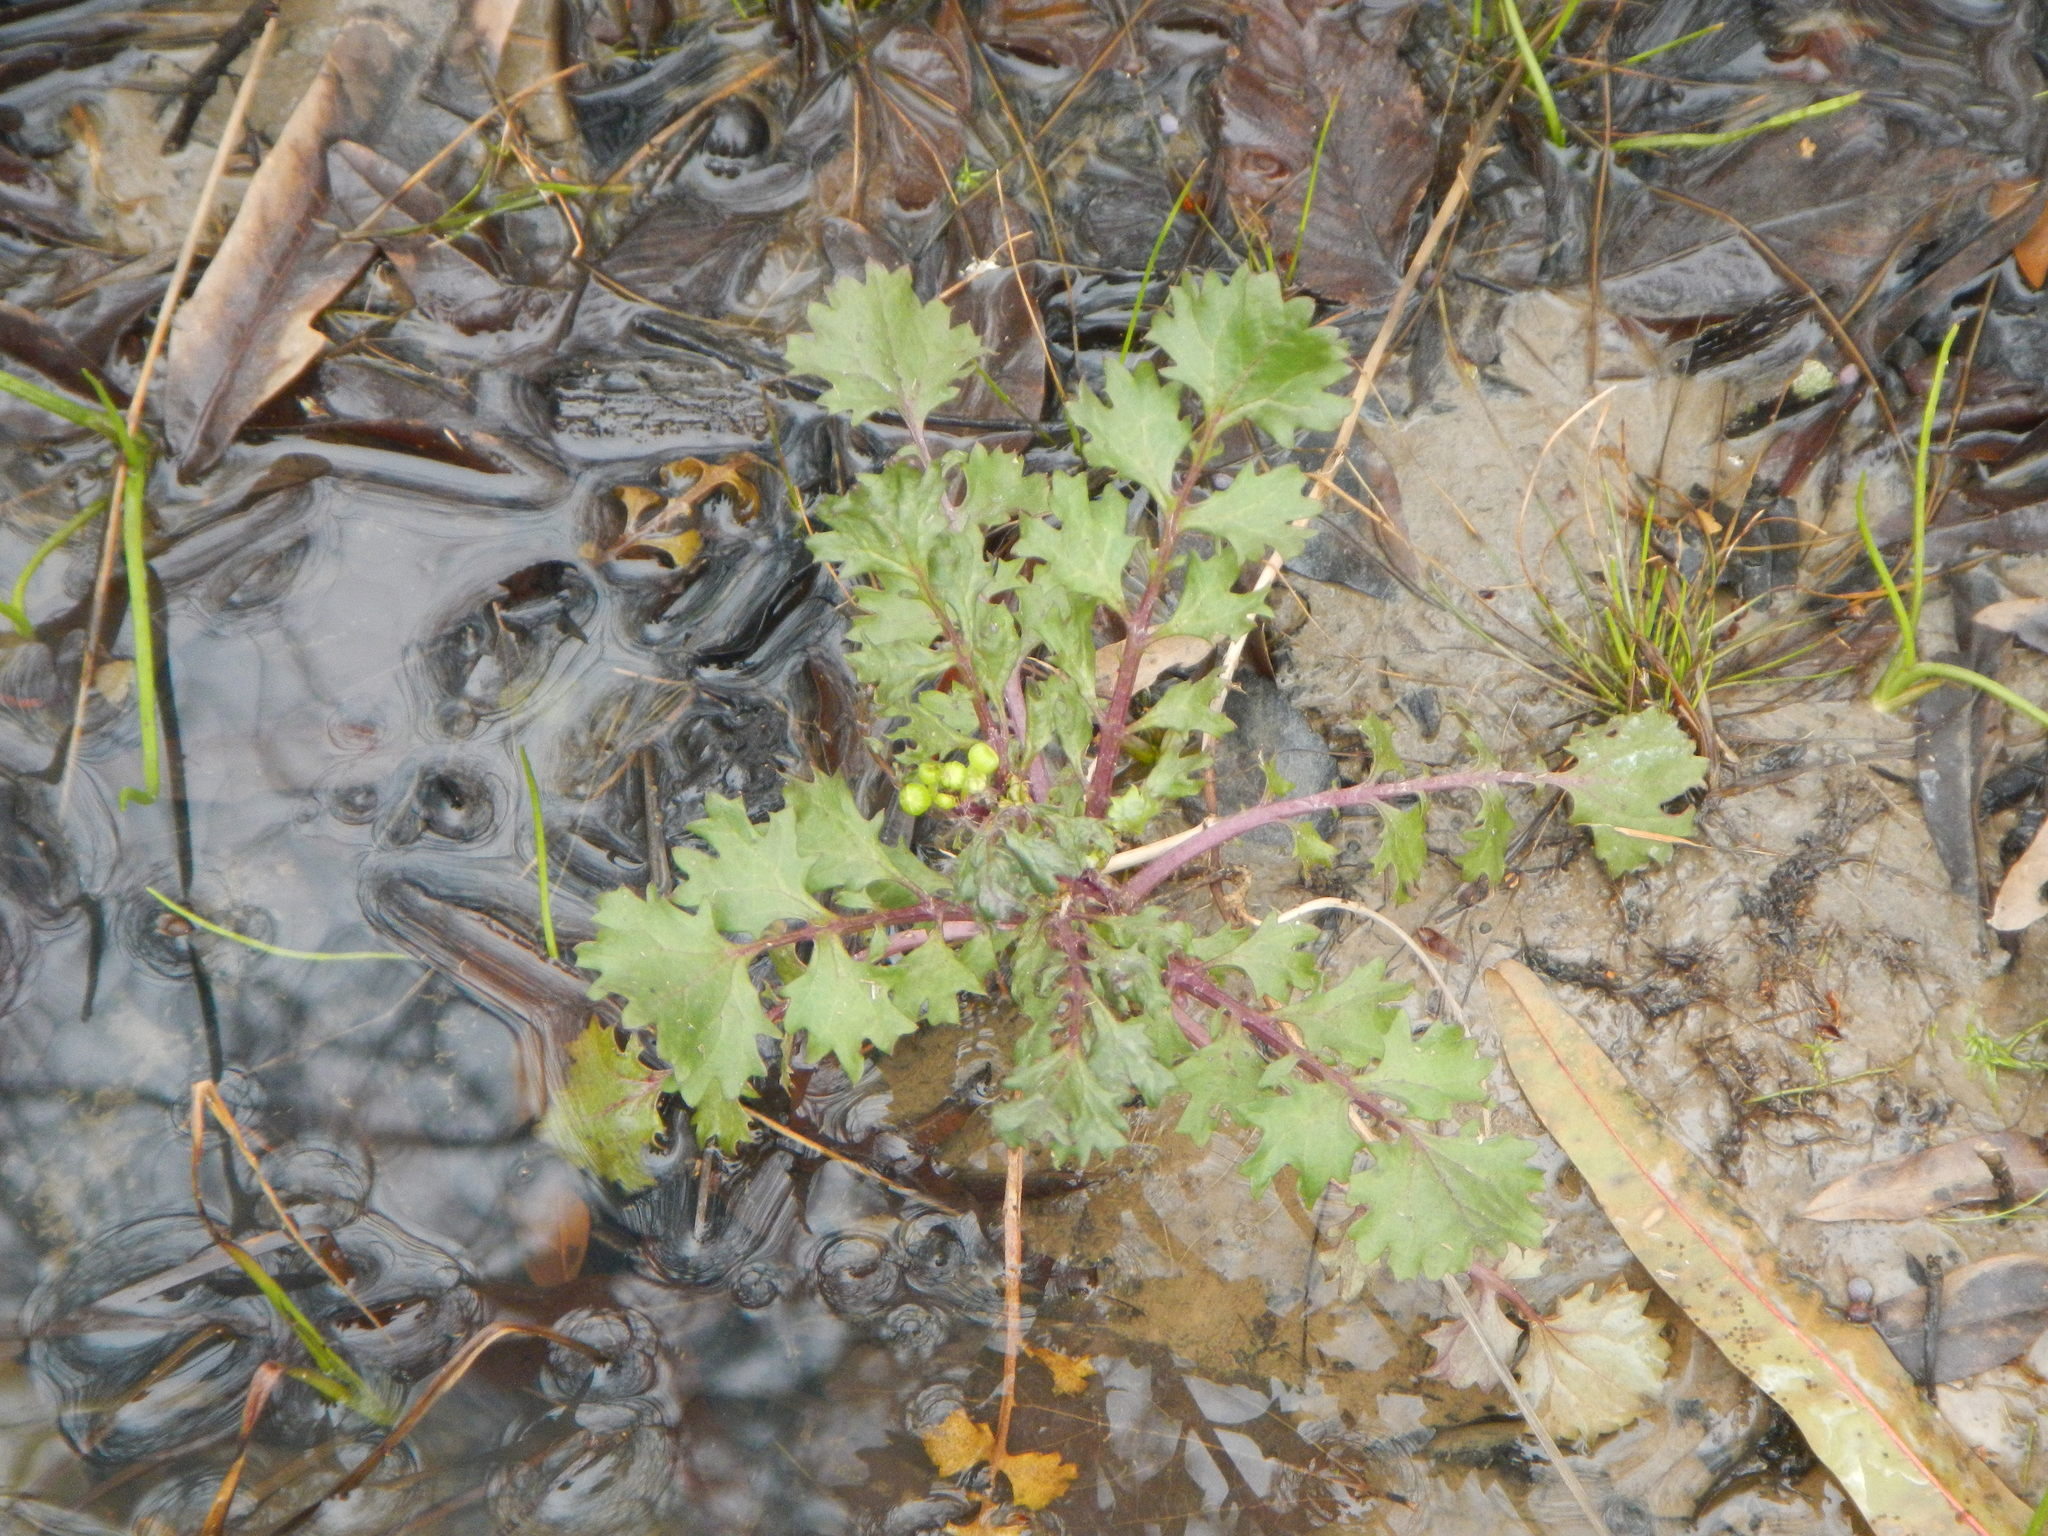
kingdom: Plantae
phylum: Tracheophyta
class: Magnoliopsida
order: Asterales
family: Asteraceae
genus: Packera
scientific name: Packera glabella
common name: Butterweed
